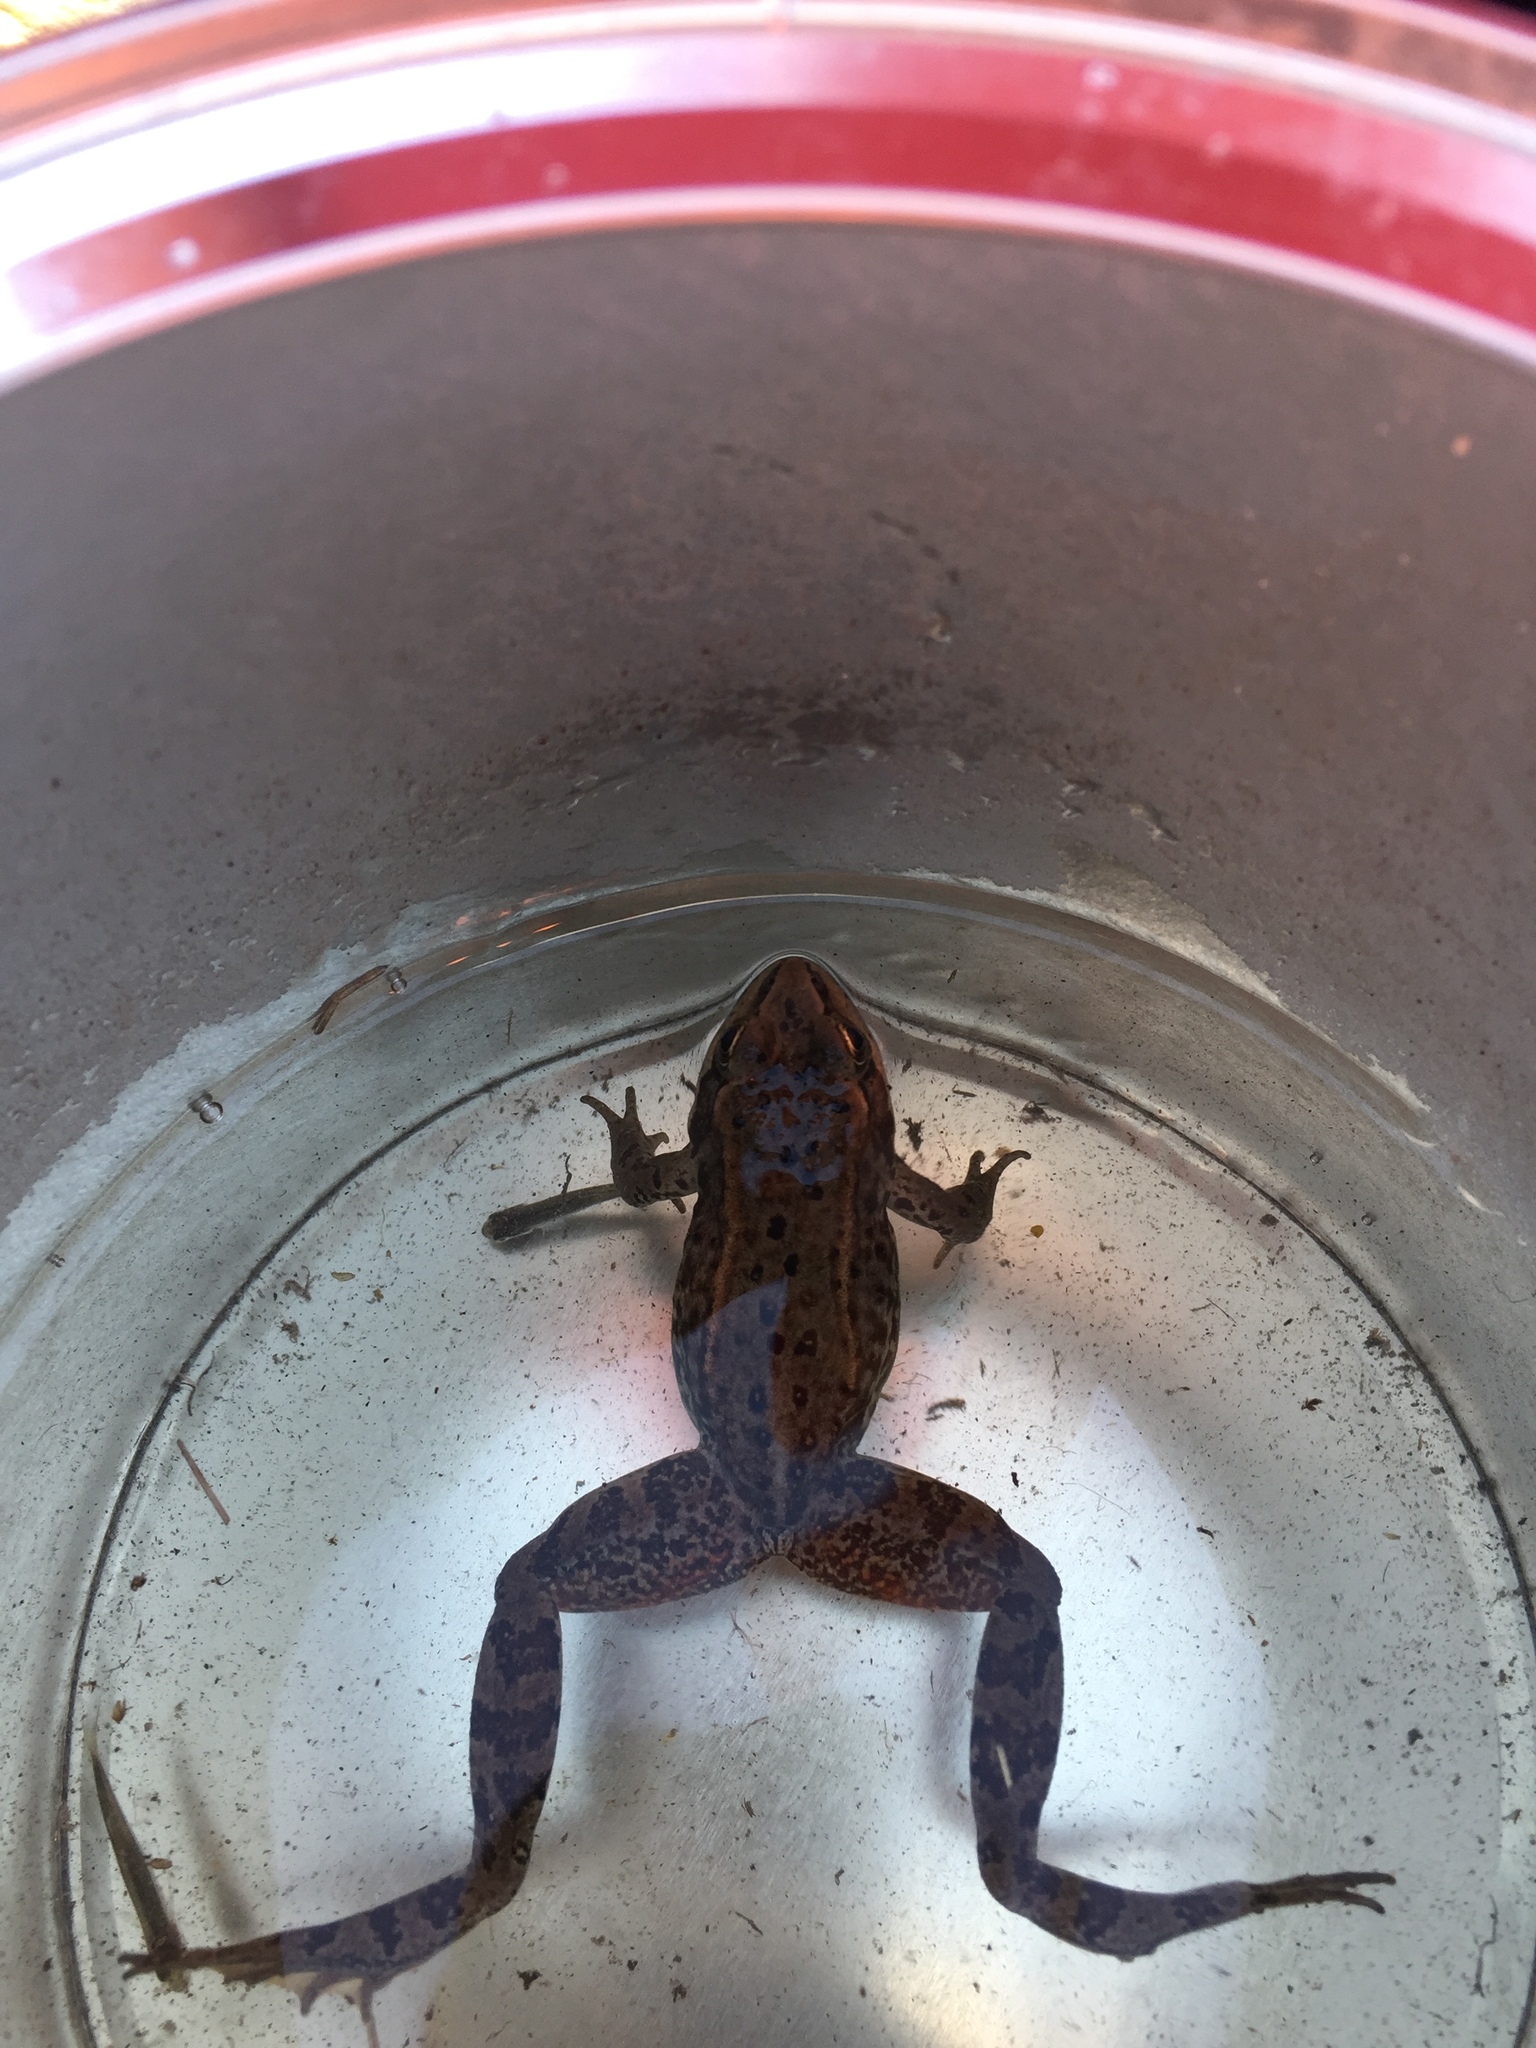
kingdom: Animalia
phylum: Chordata
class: Amphibia
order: Anura
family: Ranidae
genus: Rana
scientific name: Rana luteiventris
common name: Columbia spotted frog
